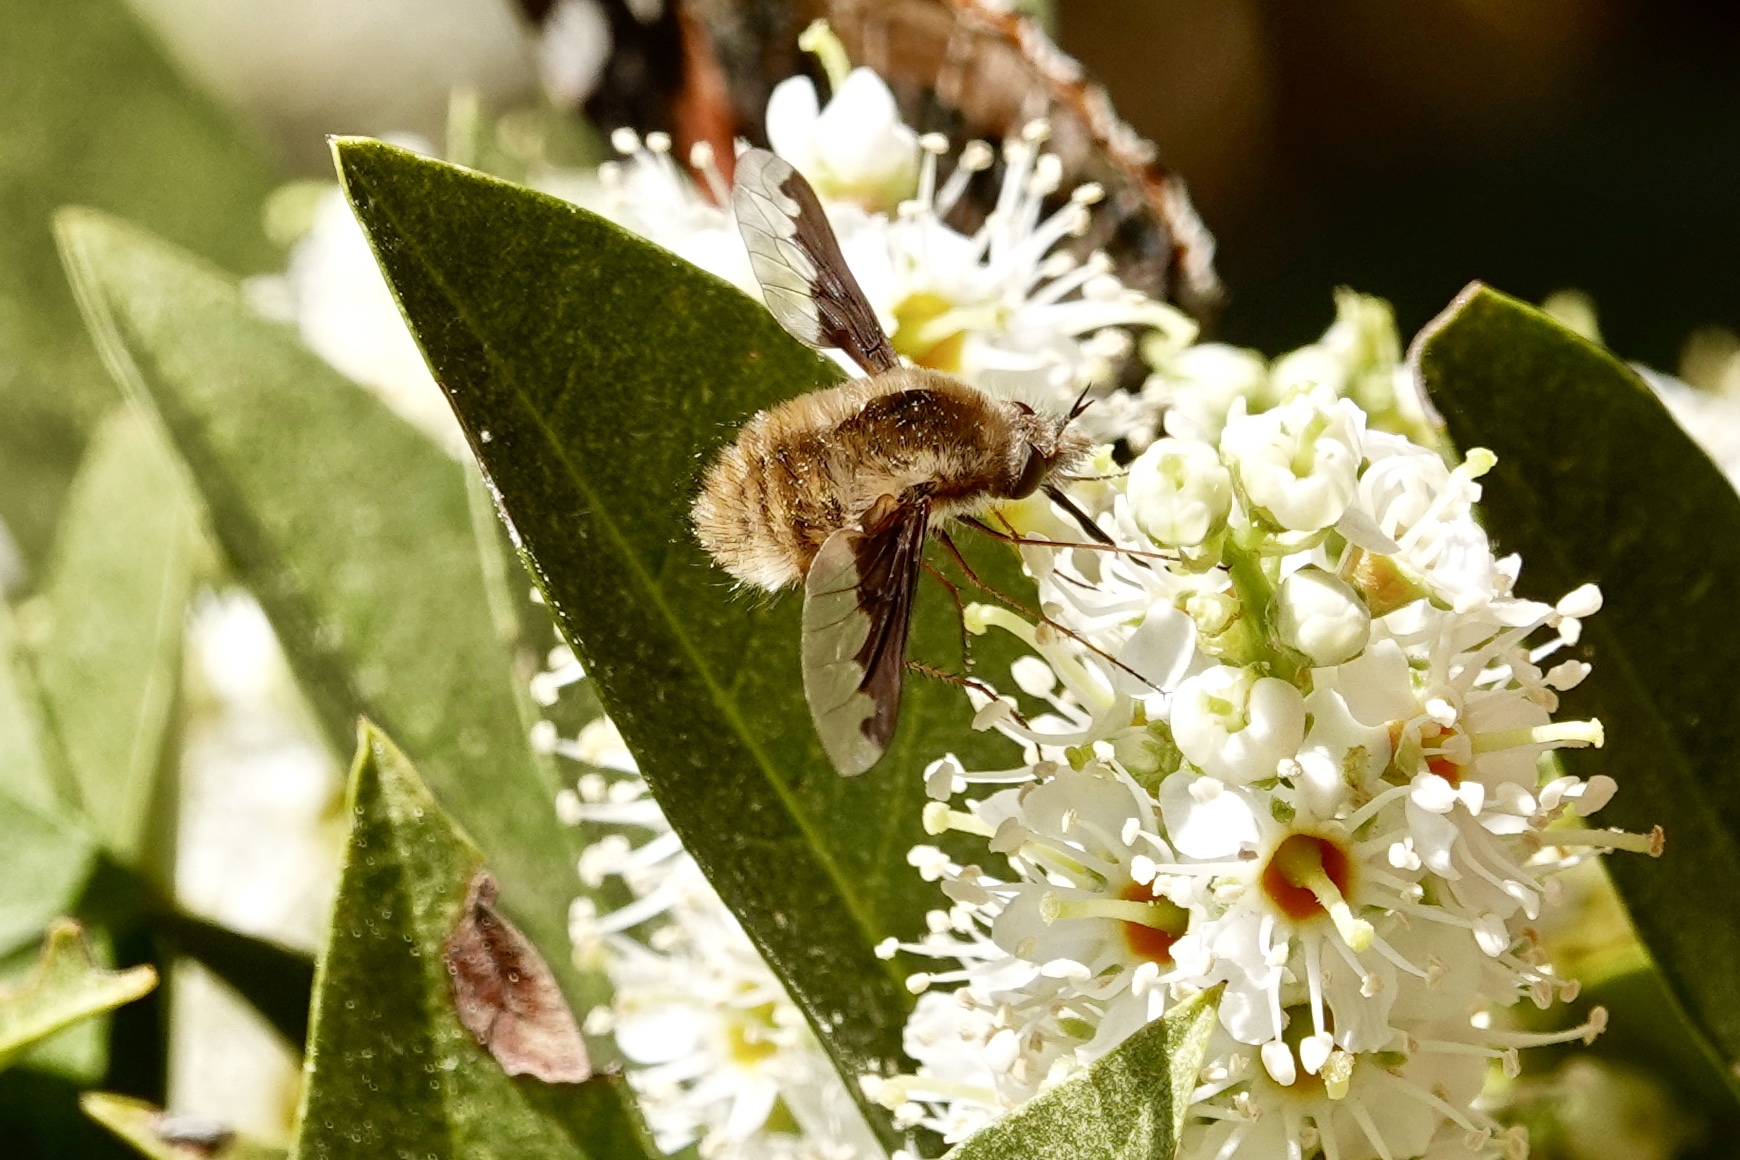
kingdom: Animalia
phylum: Arthropoda
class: Insecta
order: Diptera
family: Bombyliidae
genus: Bombylius
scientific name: Bombylius major
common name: Bee fly
